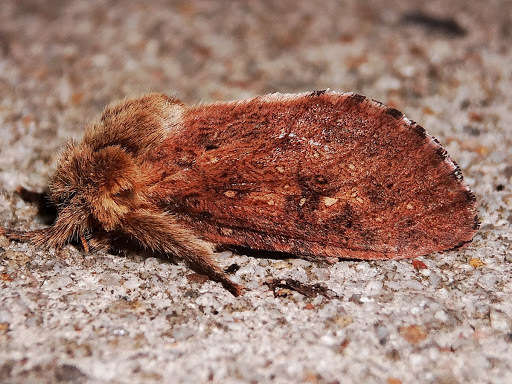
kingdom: Animalia
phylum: Arthropoda
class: Insecta
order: Lepidoptera
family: Hepialidae
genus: Elhamma
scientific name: Elhamma australasiae
